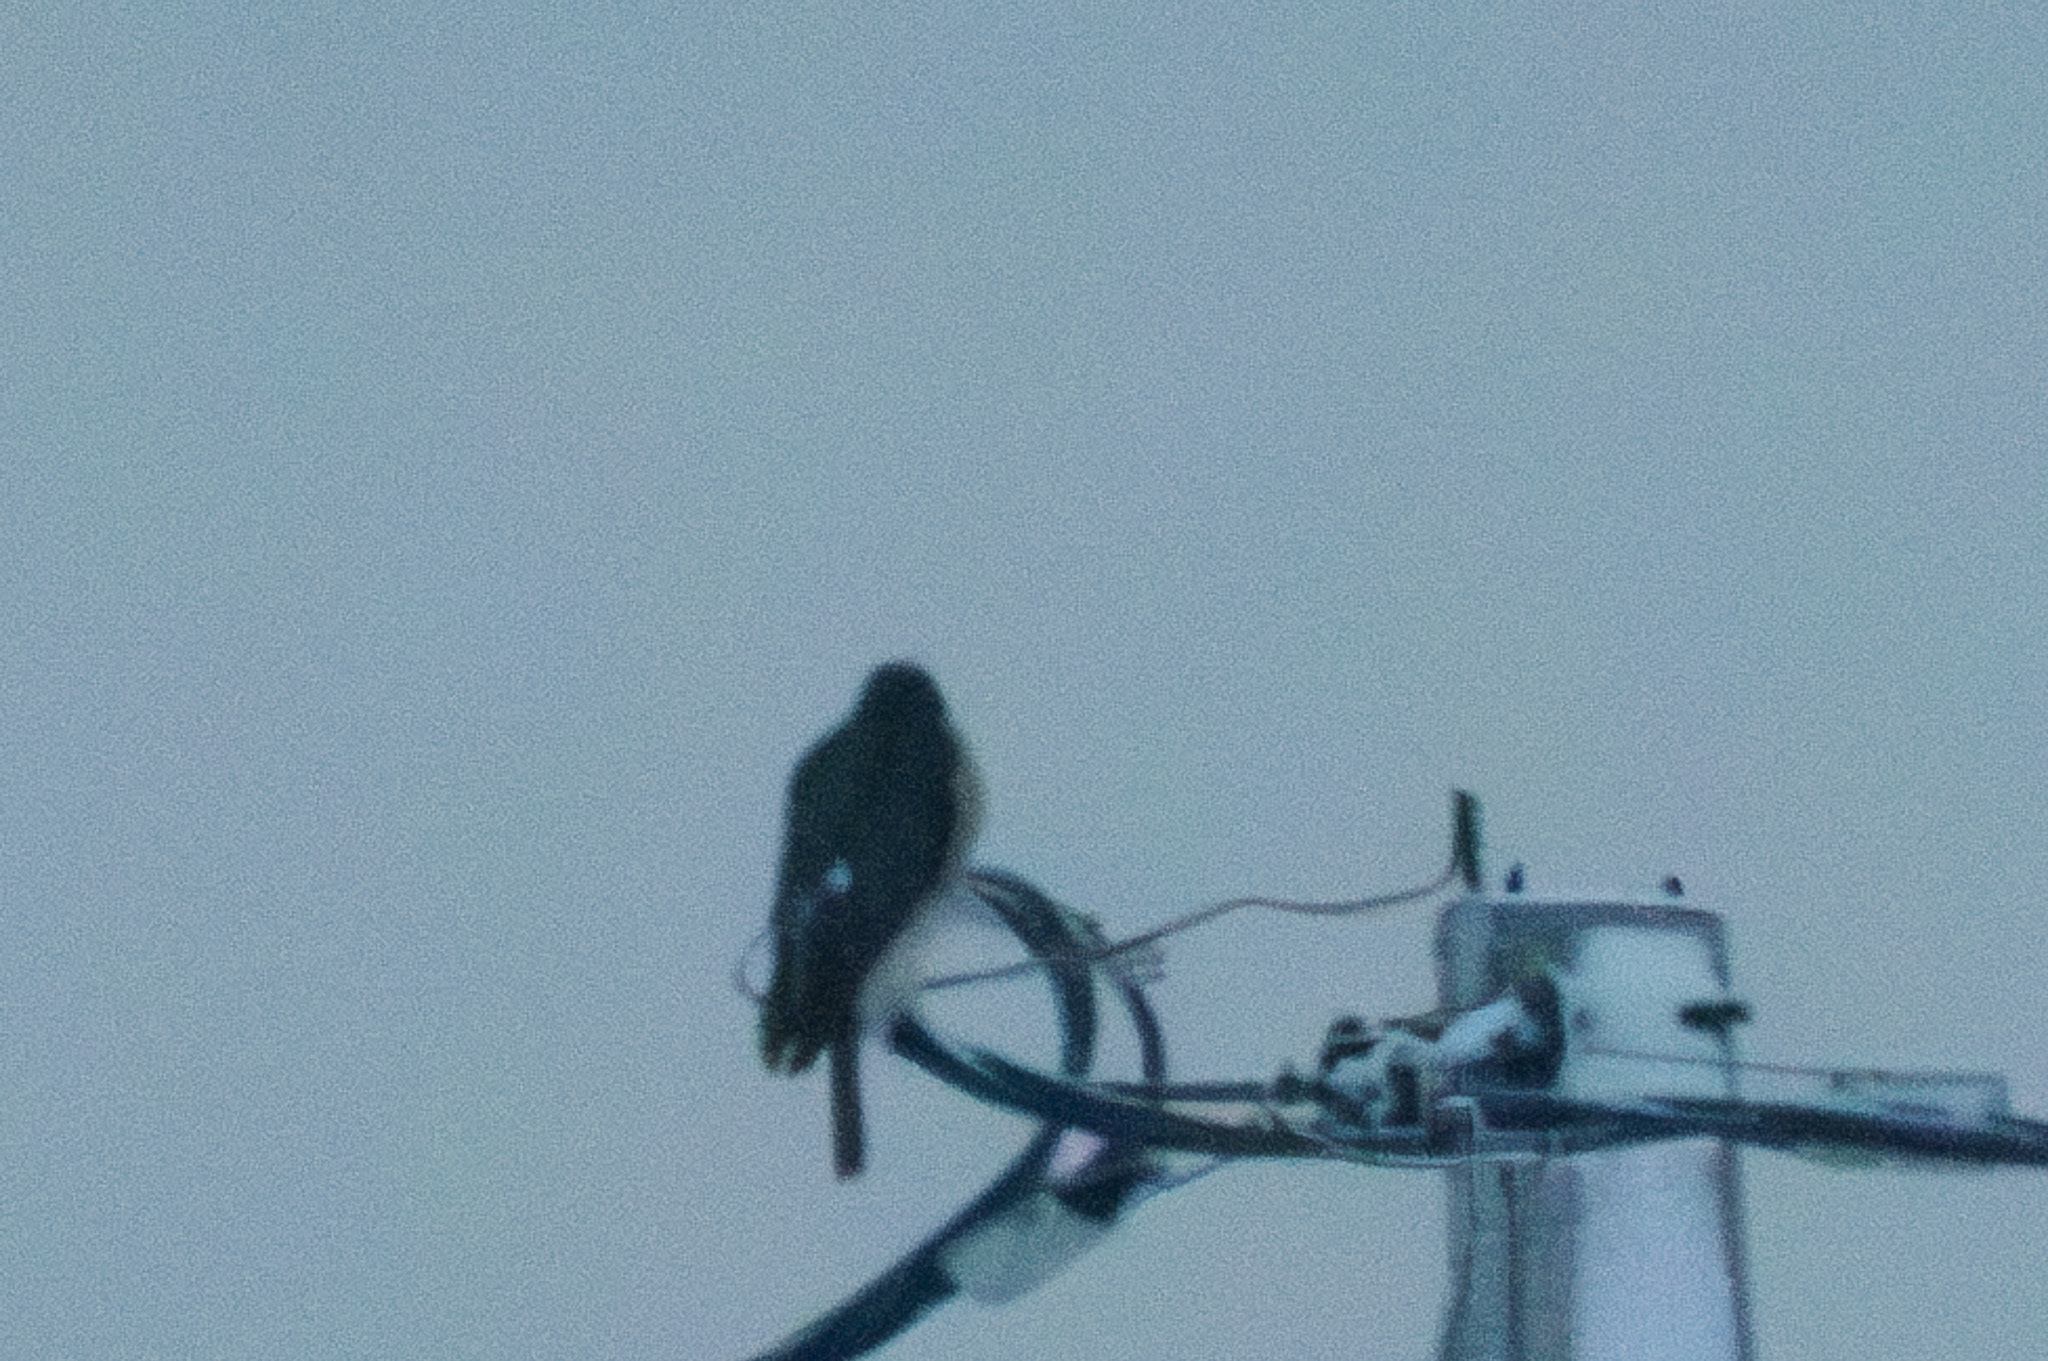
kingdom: Animalia
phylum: Chordata
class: Aves
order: Accipitriformes
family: Accipitridae
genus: Accipiter
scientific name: Accipiter nisus
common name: Eurasian sparrowhawk
